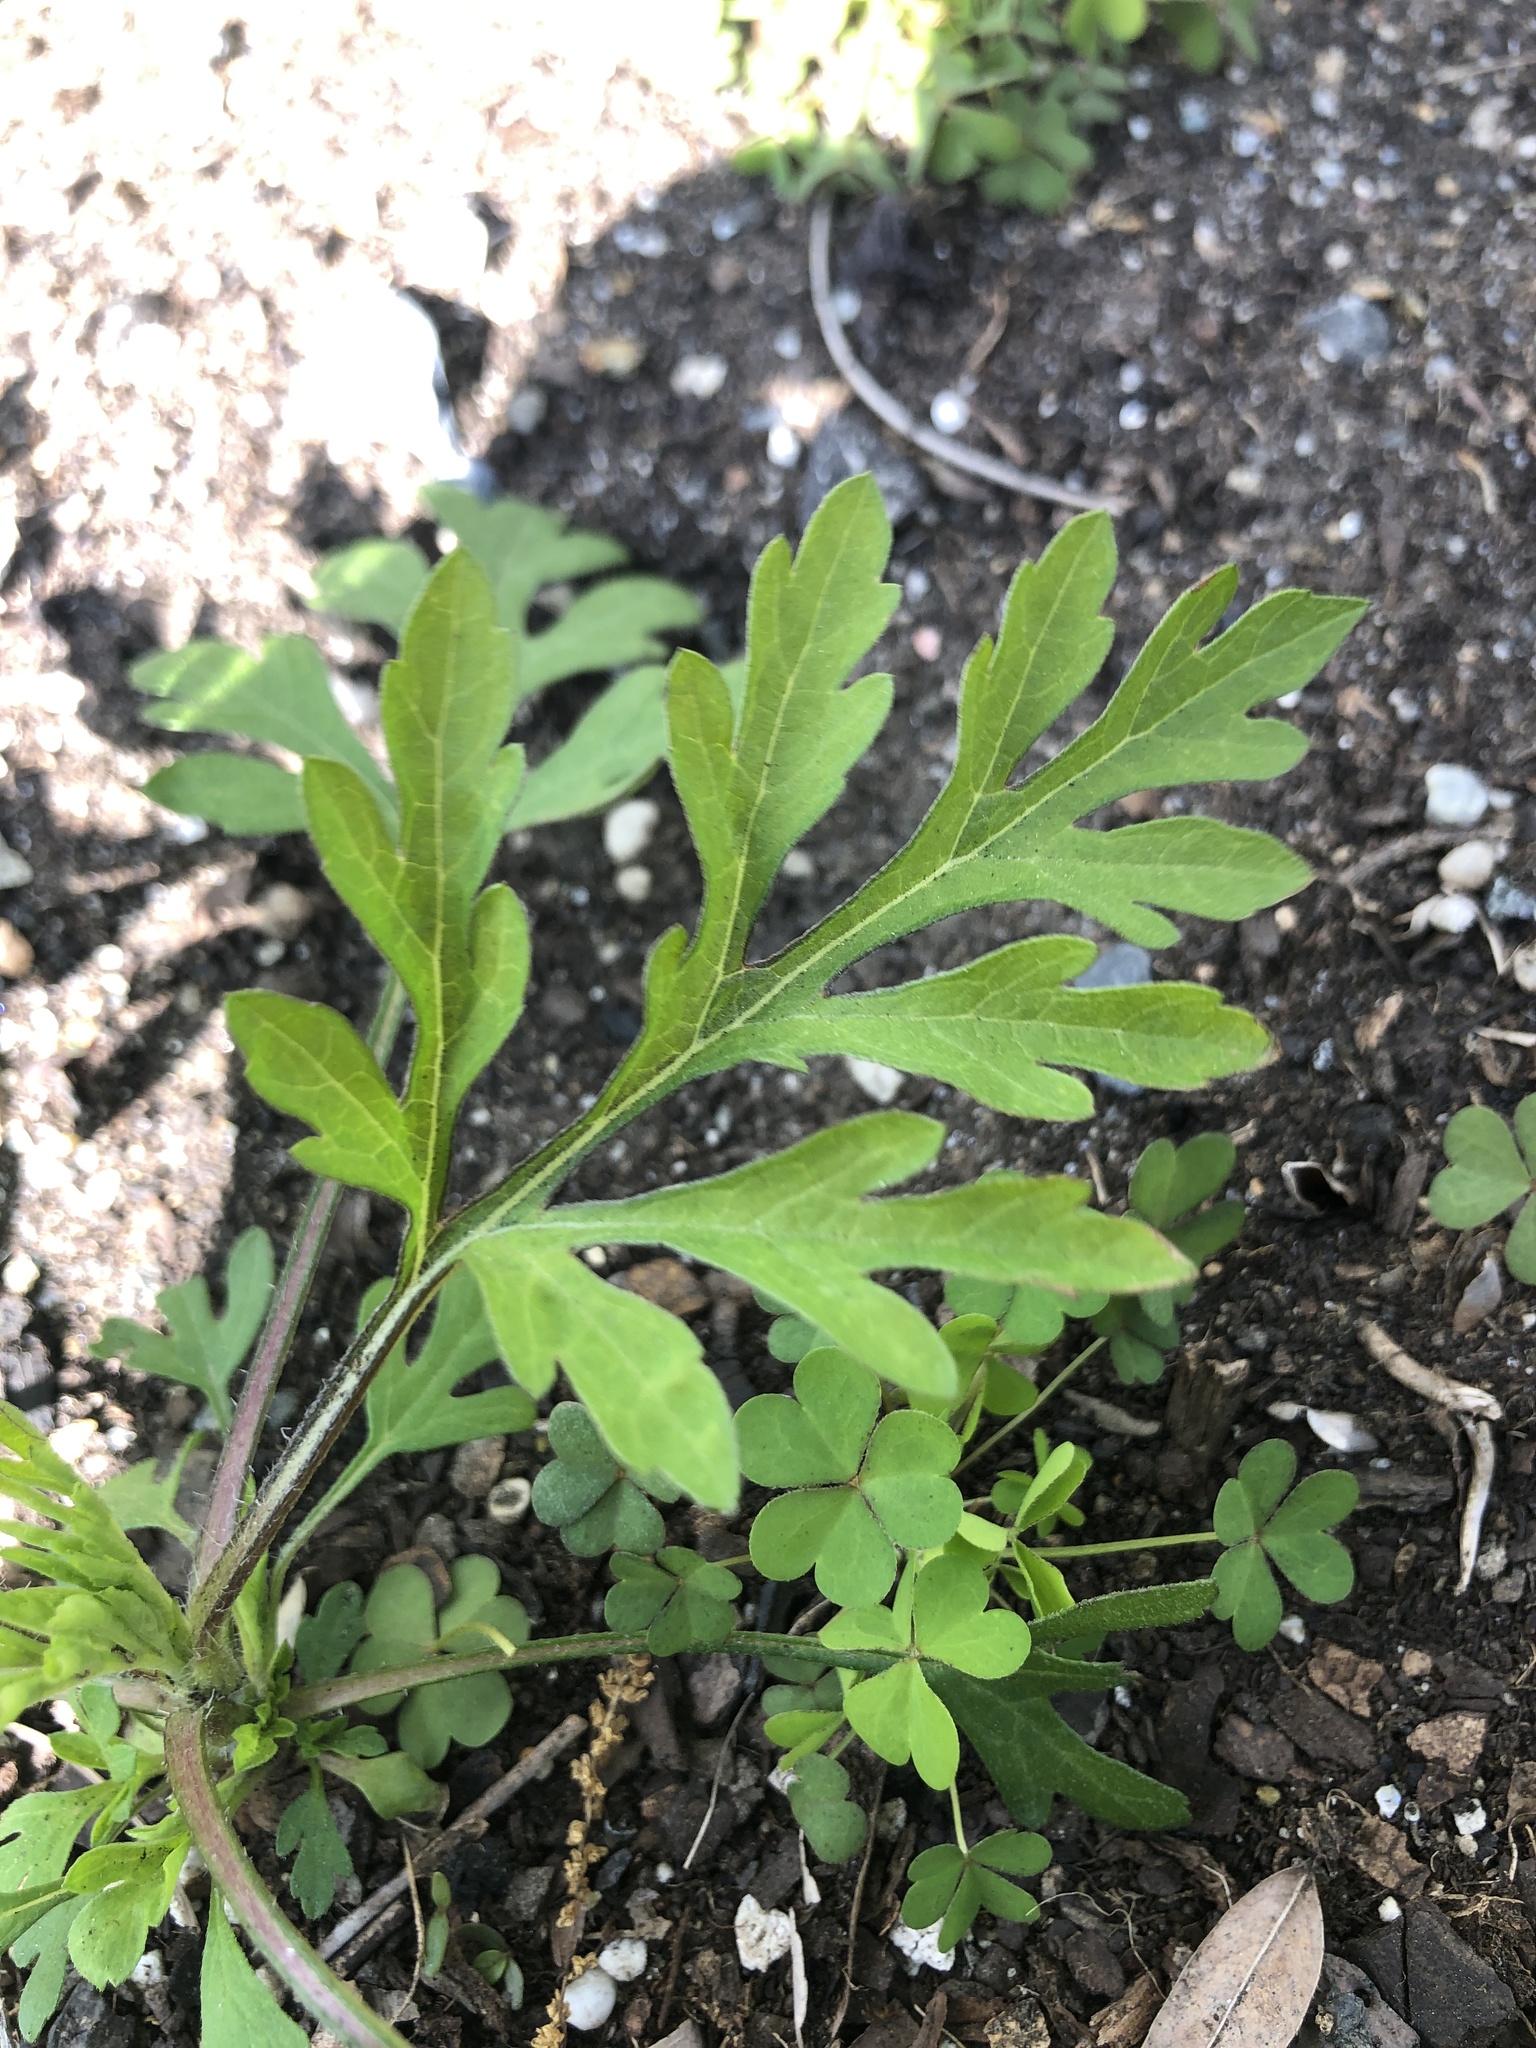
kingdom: Plantae
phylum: Tracheophyta
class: Magnoliopsida
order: Asterales
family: Asteraceae
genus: Ambrosia
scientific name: Ambrosia artemisiifolia
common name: Annual ragweed
